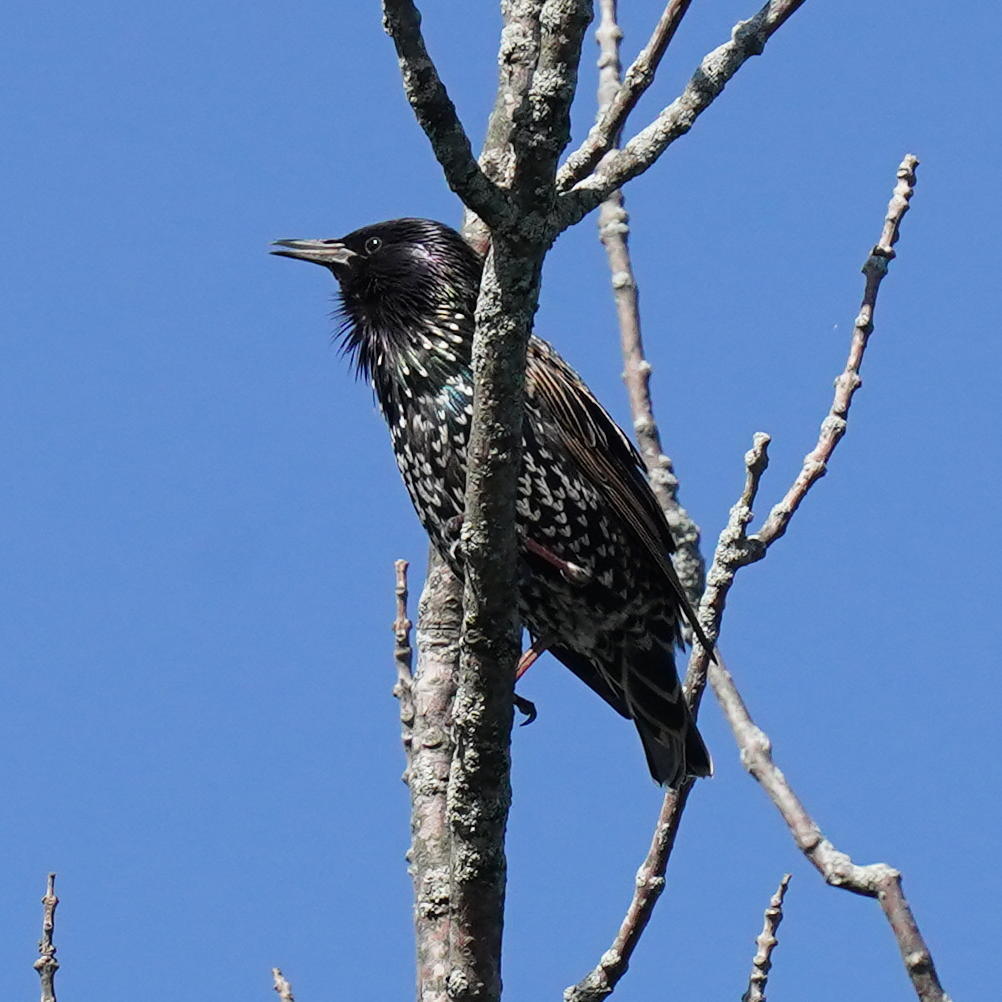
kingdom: Animalia
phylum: Chordata
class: Aves
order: Passeriformes
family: Sturnidae
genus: Sturnus
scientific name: Sturnus vulgaris
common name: Common starling
